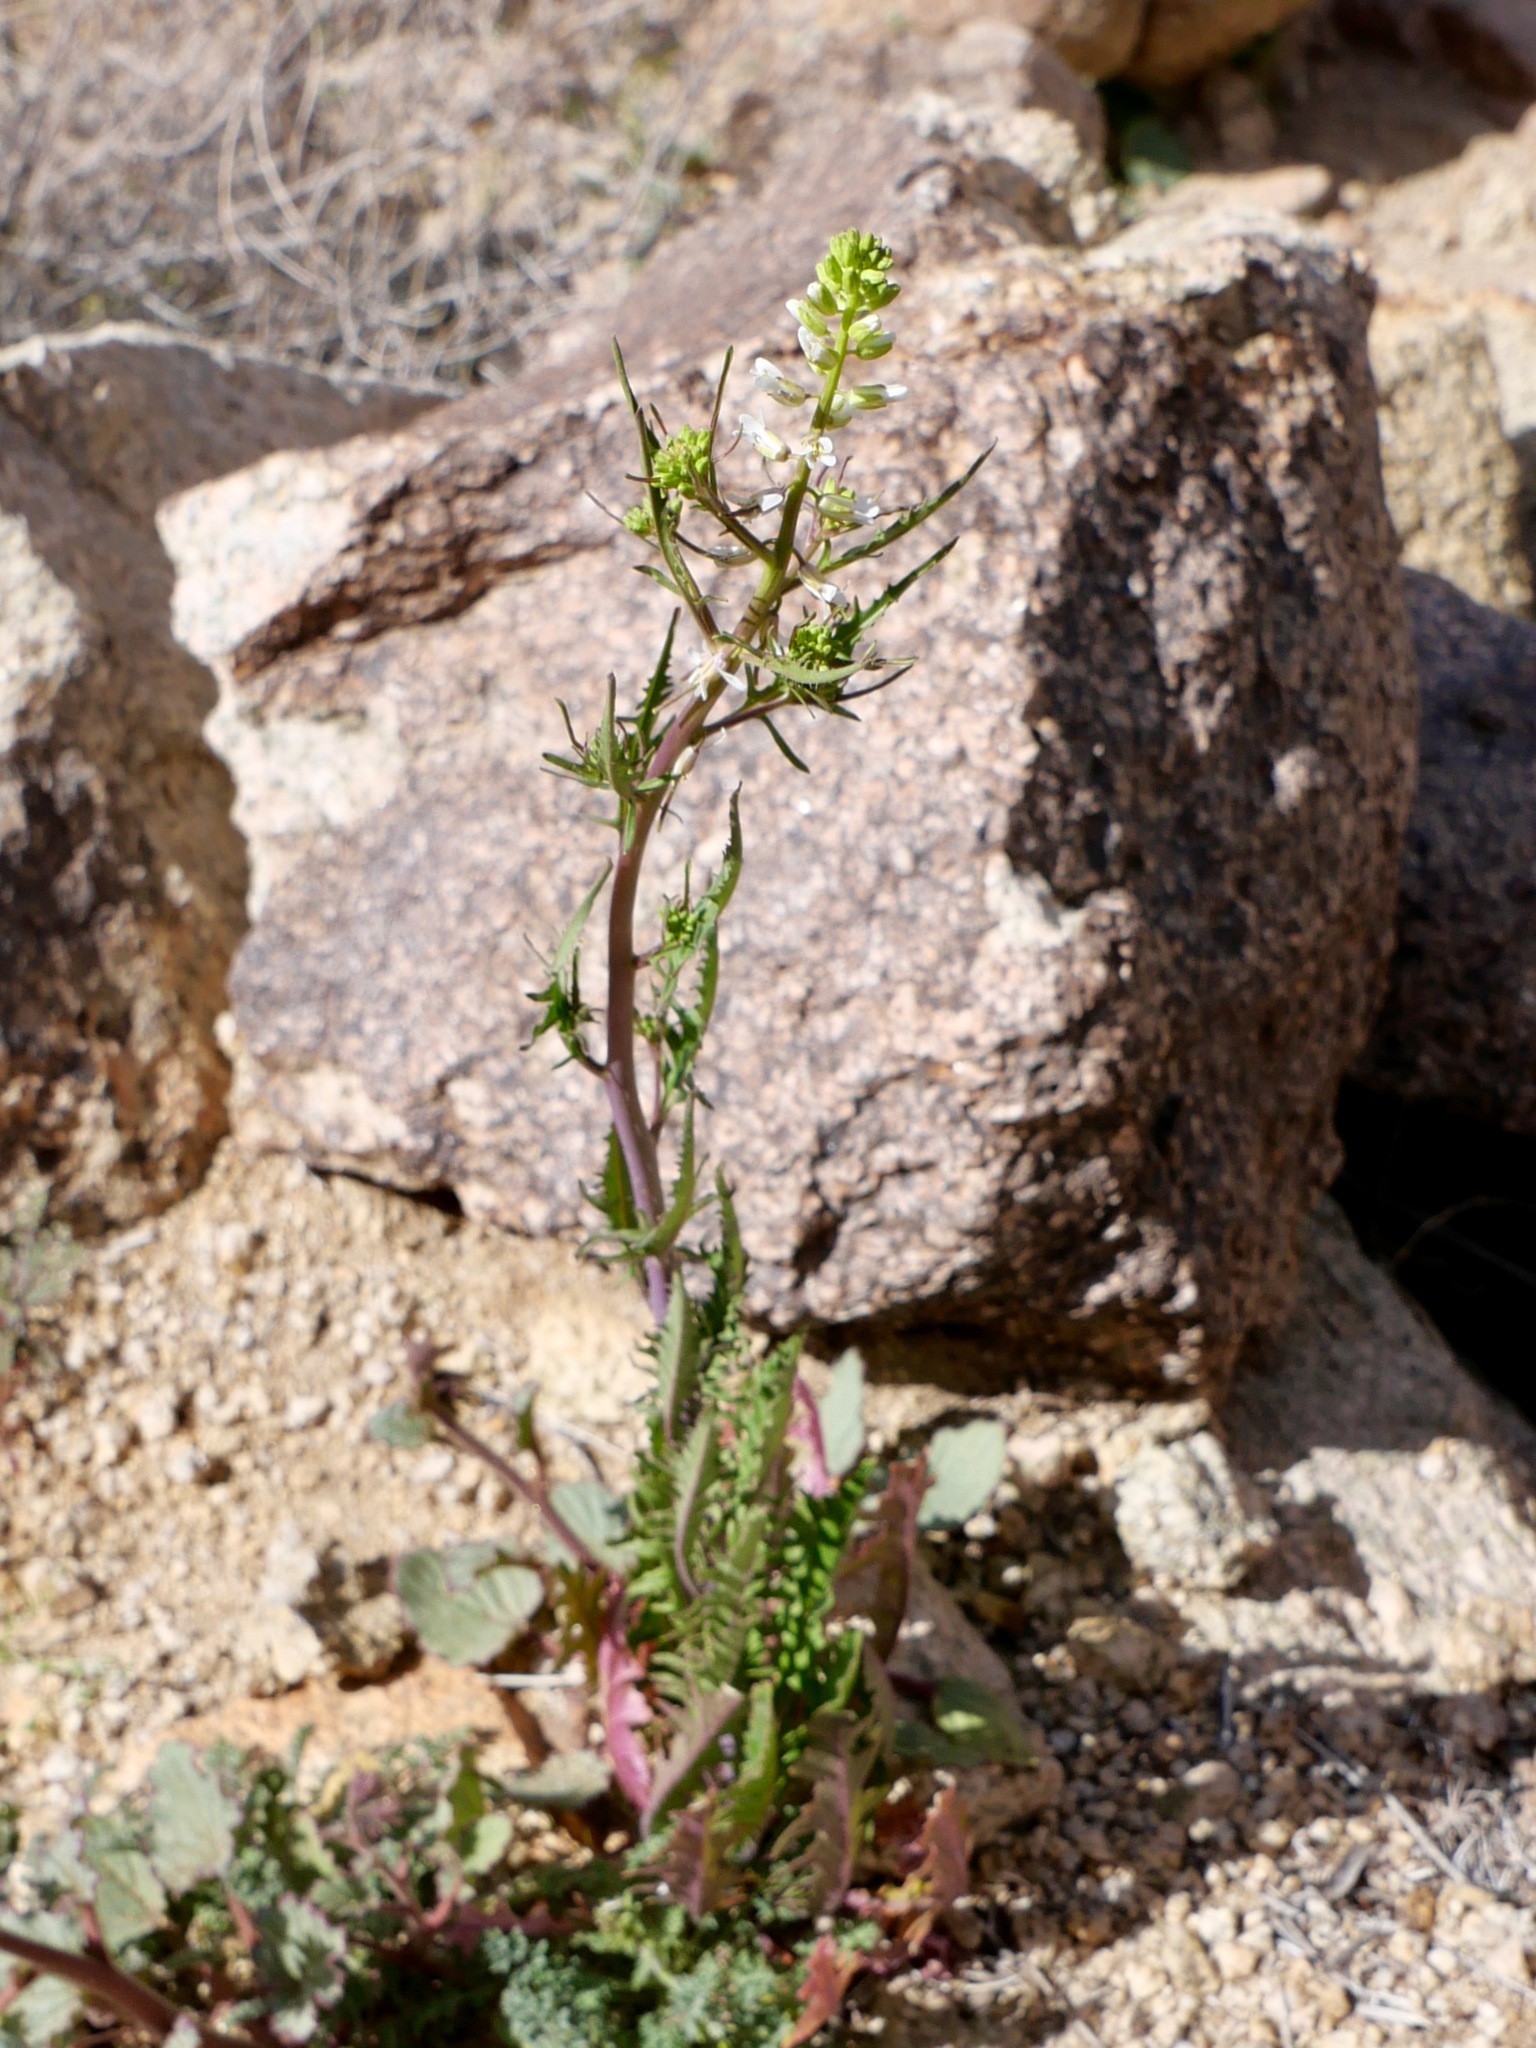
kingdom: Plantae
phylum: Tracheophyta
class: Magnoliopsida
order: Brassicales
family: Brassicaceae
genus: Streptanthus
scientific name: Streptanthus lasiophyllus
